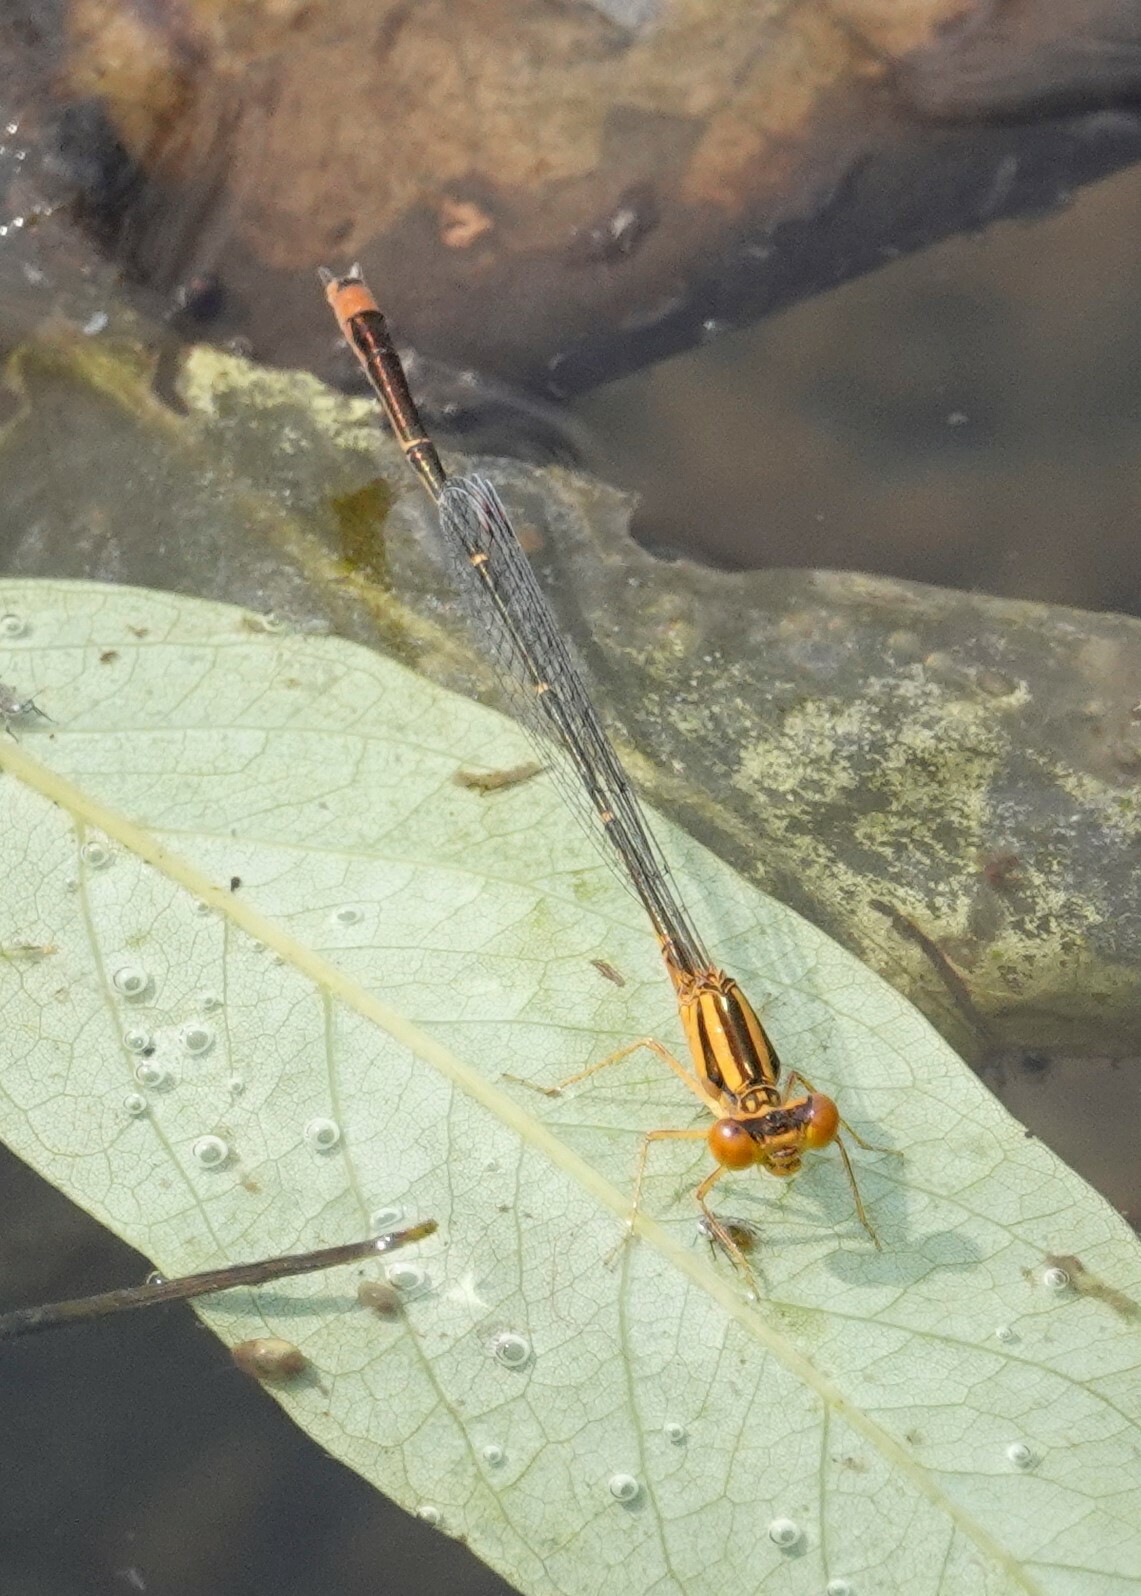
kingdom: Animalia
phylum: Arthropoda
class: Insecta
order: Odonata
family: Coenagrionidae
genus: Enallagma
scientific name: Enallagma signatum
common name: Orange bluet
